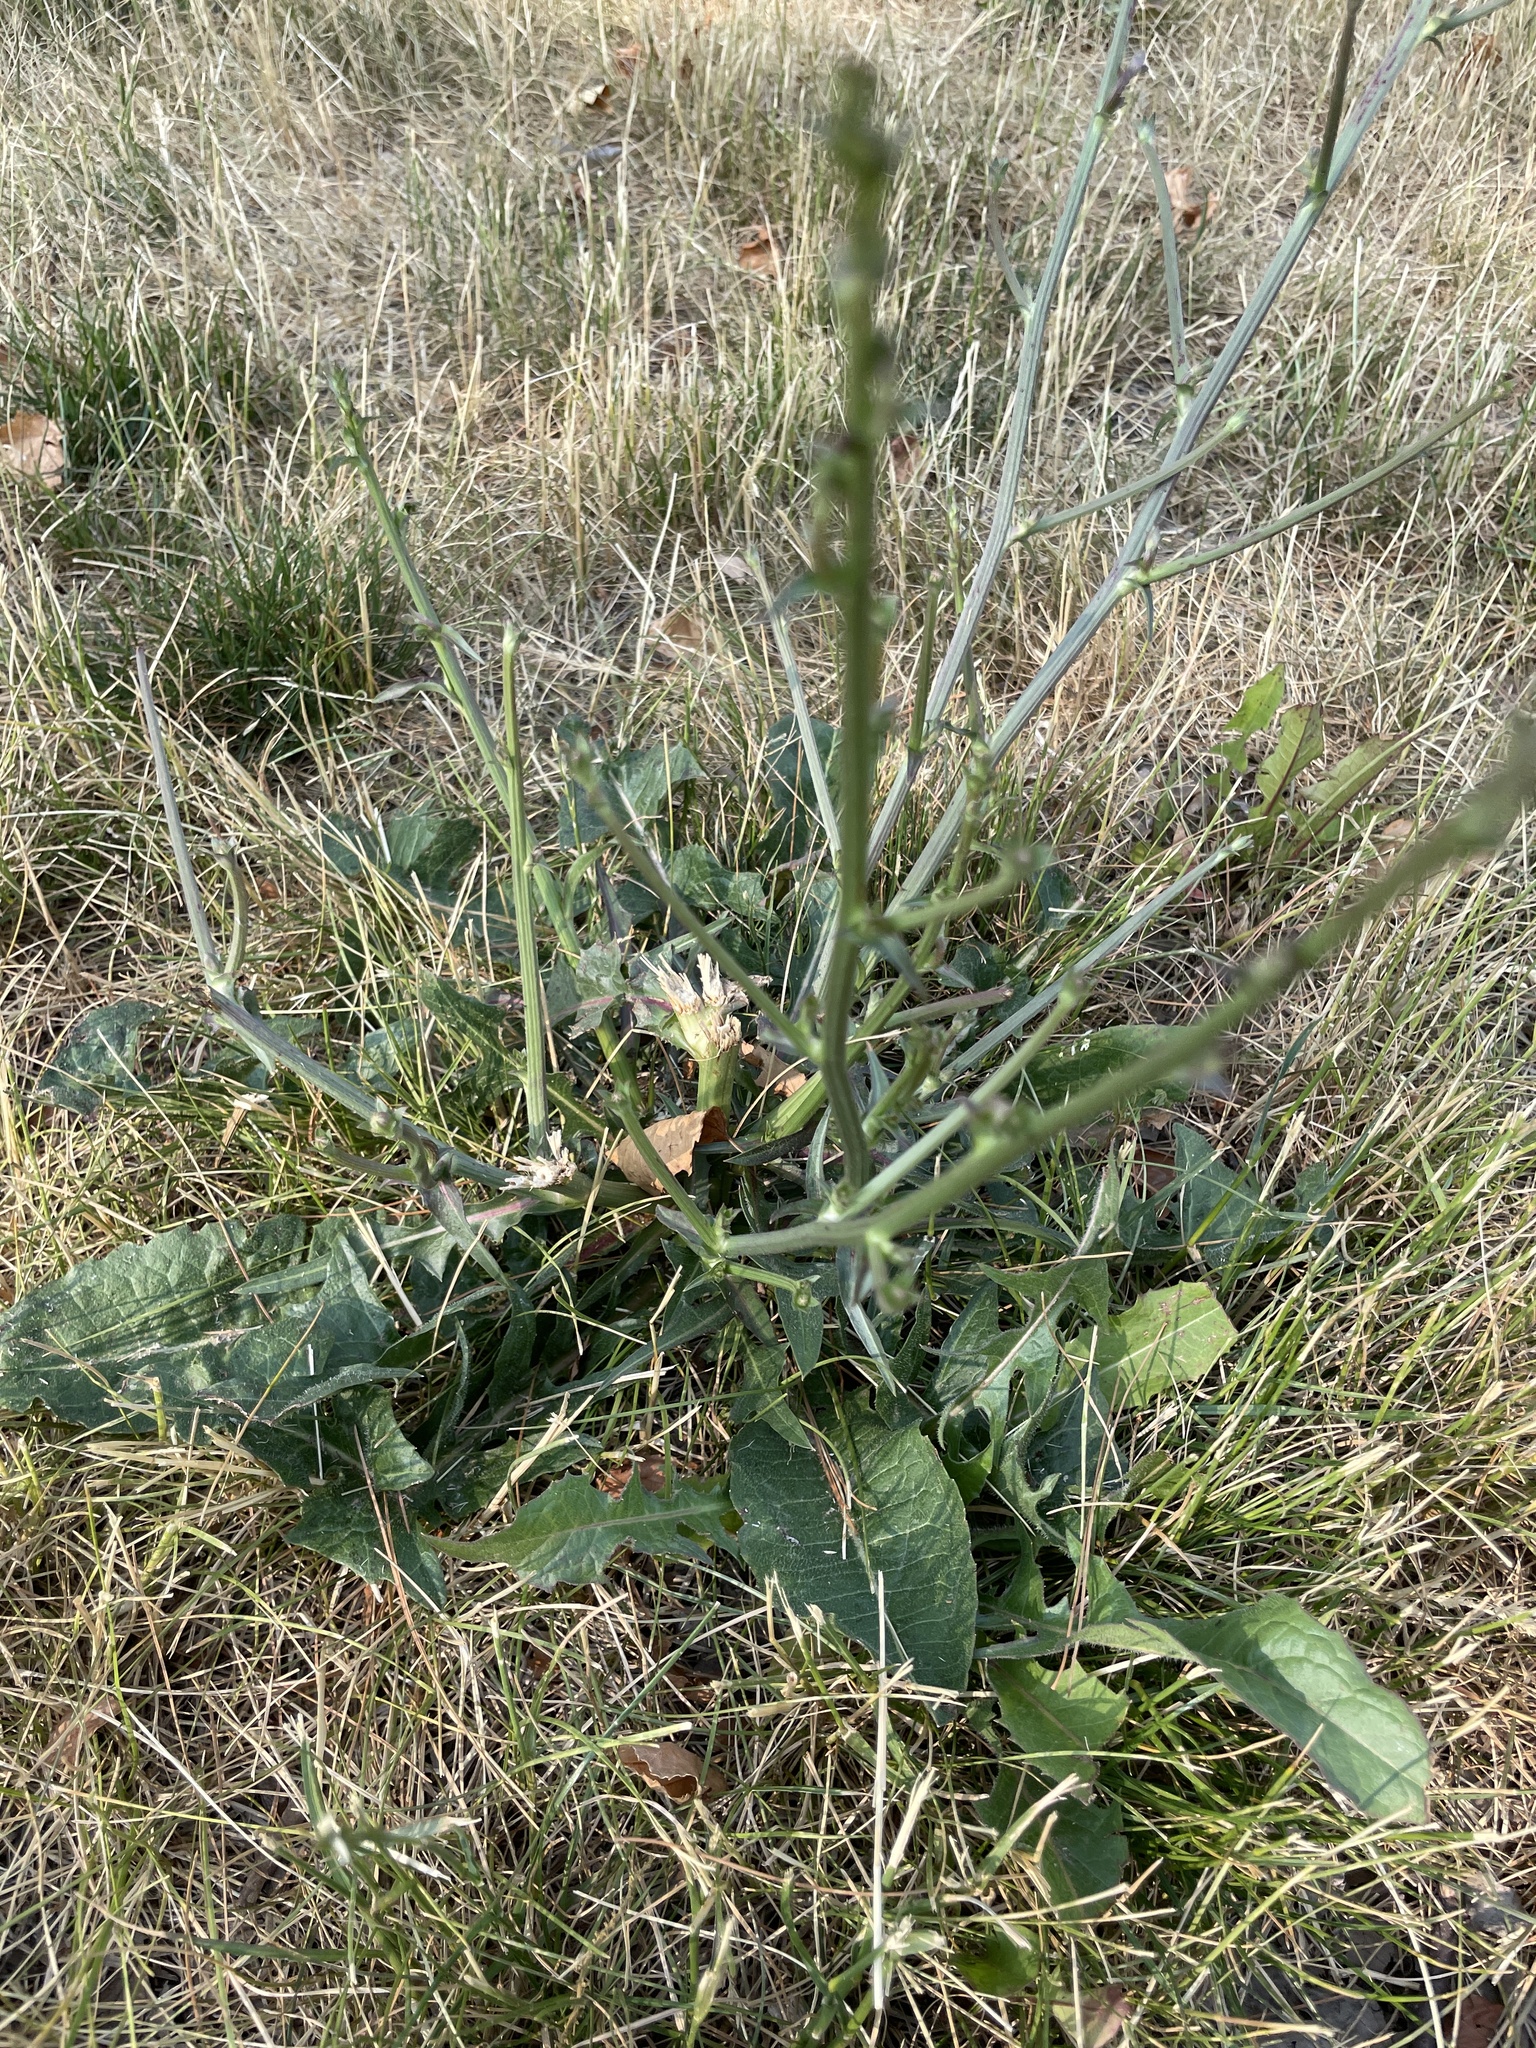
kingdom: Plantae
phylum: Tracheophyta
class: Magnoliopsida
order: Asterales
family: Asteraceae
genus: Cichorium
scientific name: Cichorium intybus
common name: Chicory
